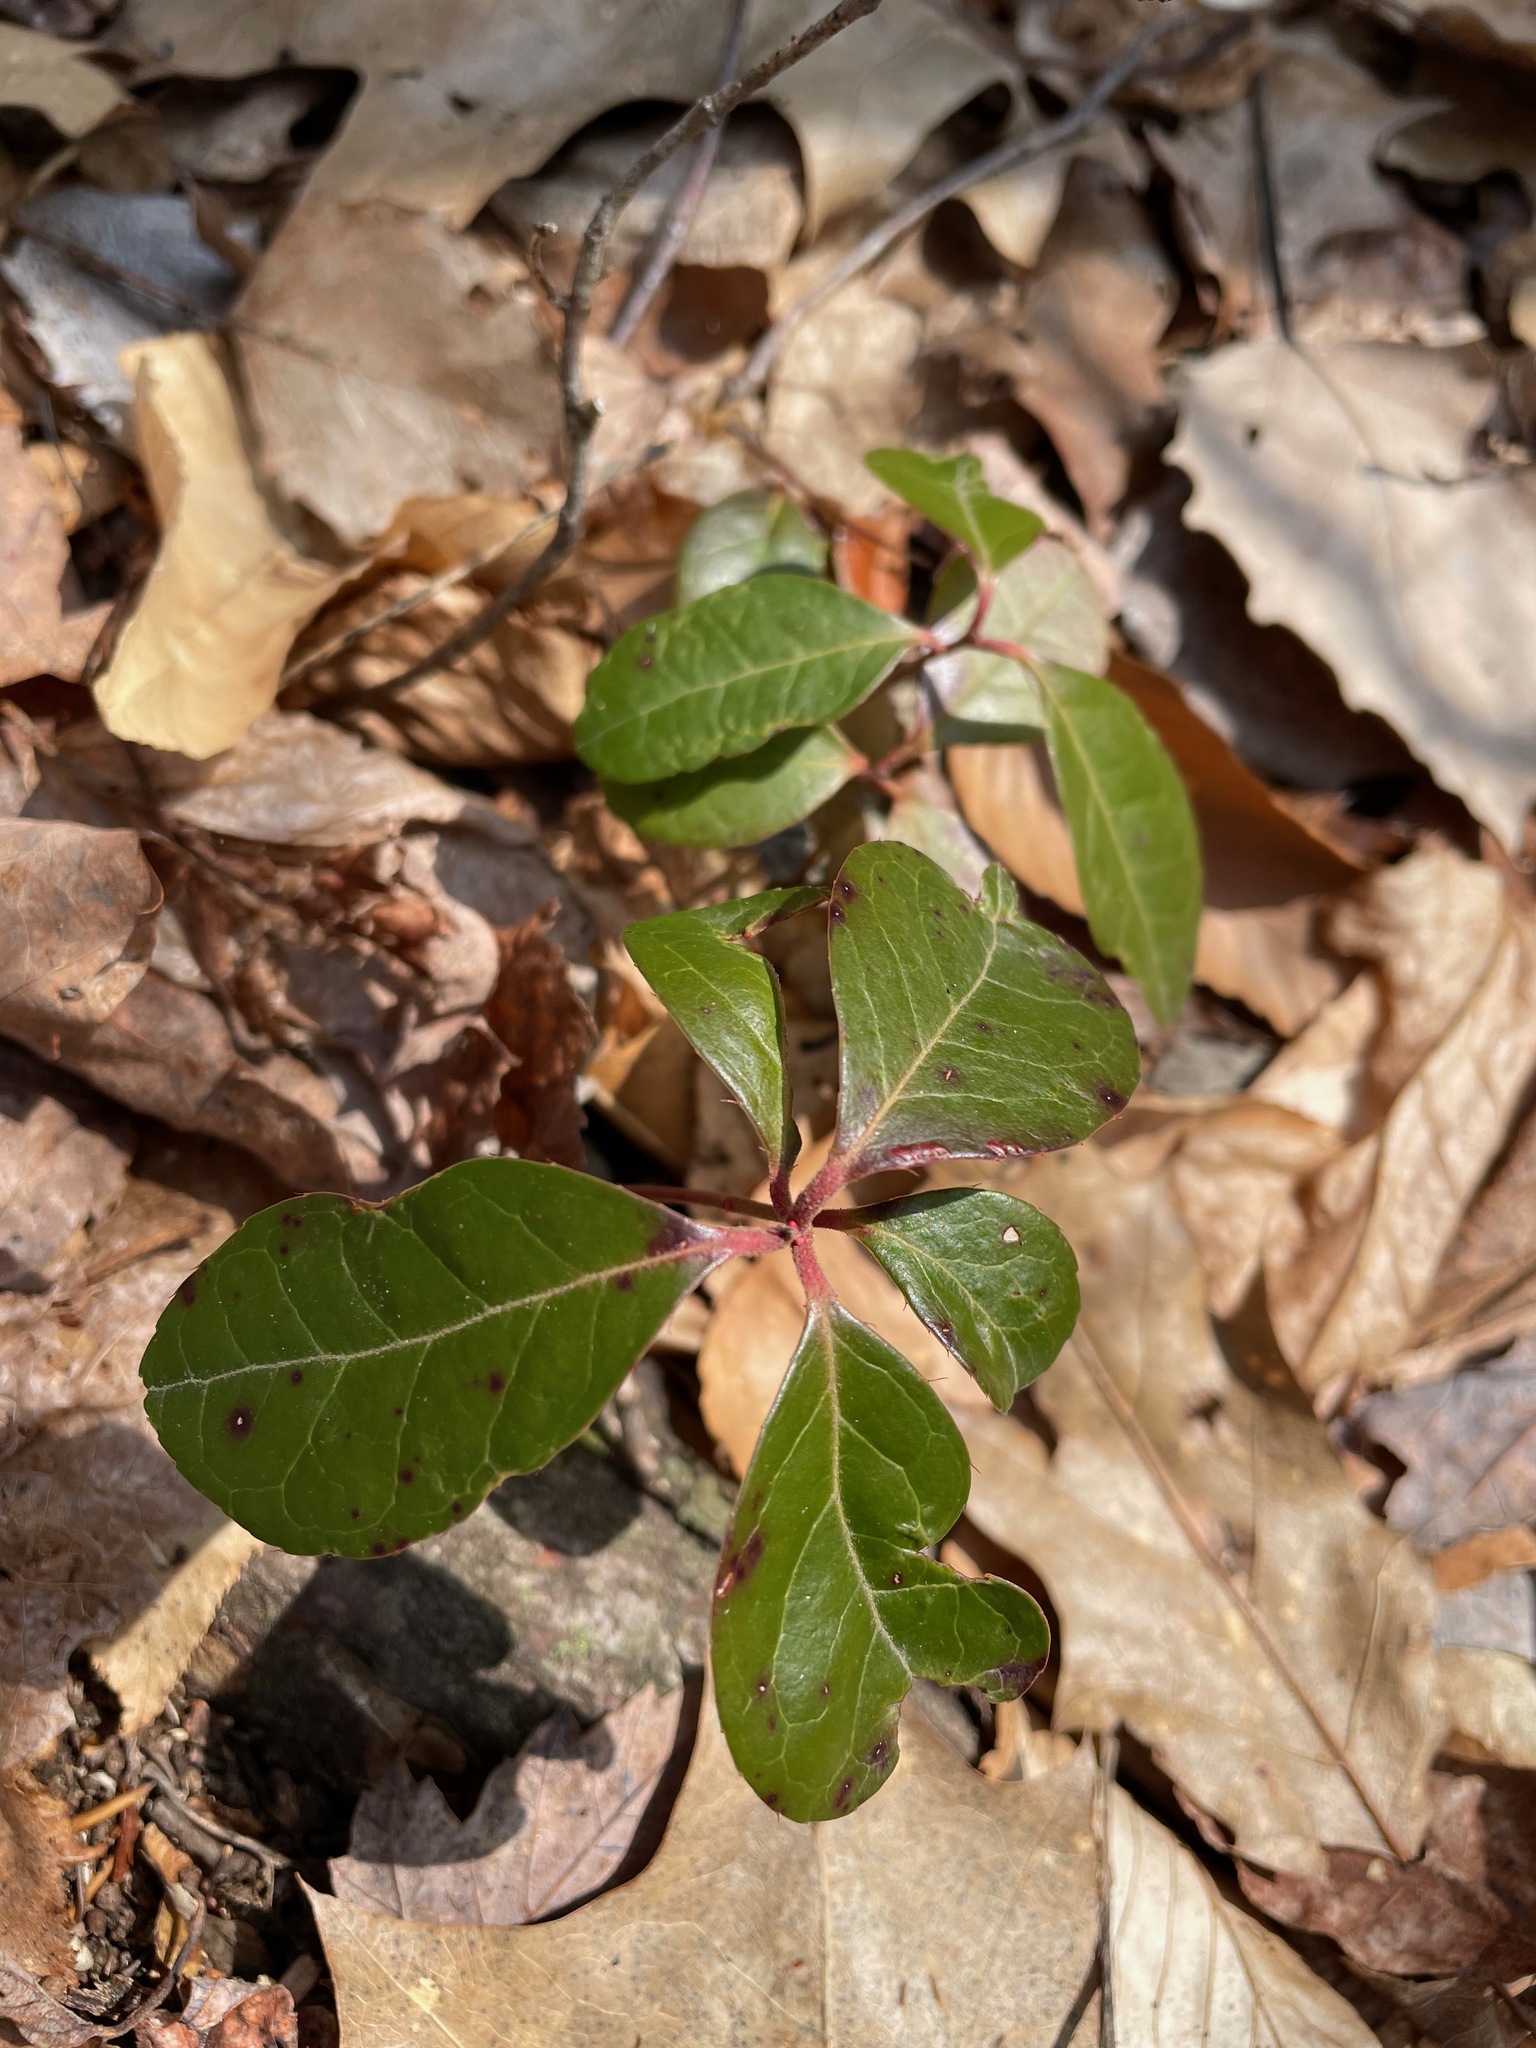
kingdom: Plantae
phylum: Tracheophyta
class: Magnoliopsida
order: Ericales
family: Ericaceae
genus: Gaultheria
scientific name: Gaultheria procumbens
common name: Checkerberry
